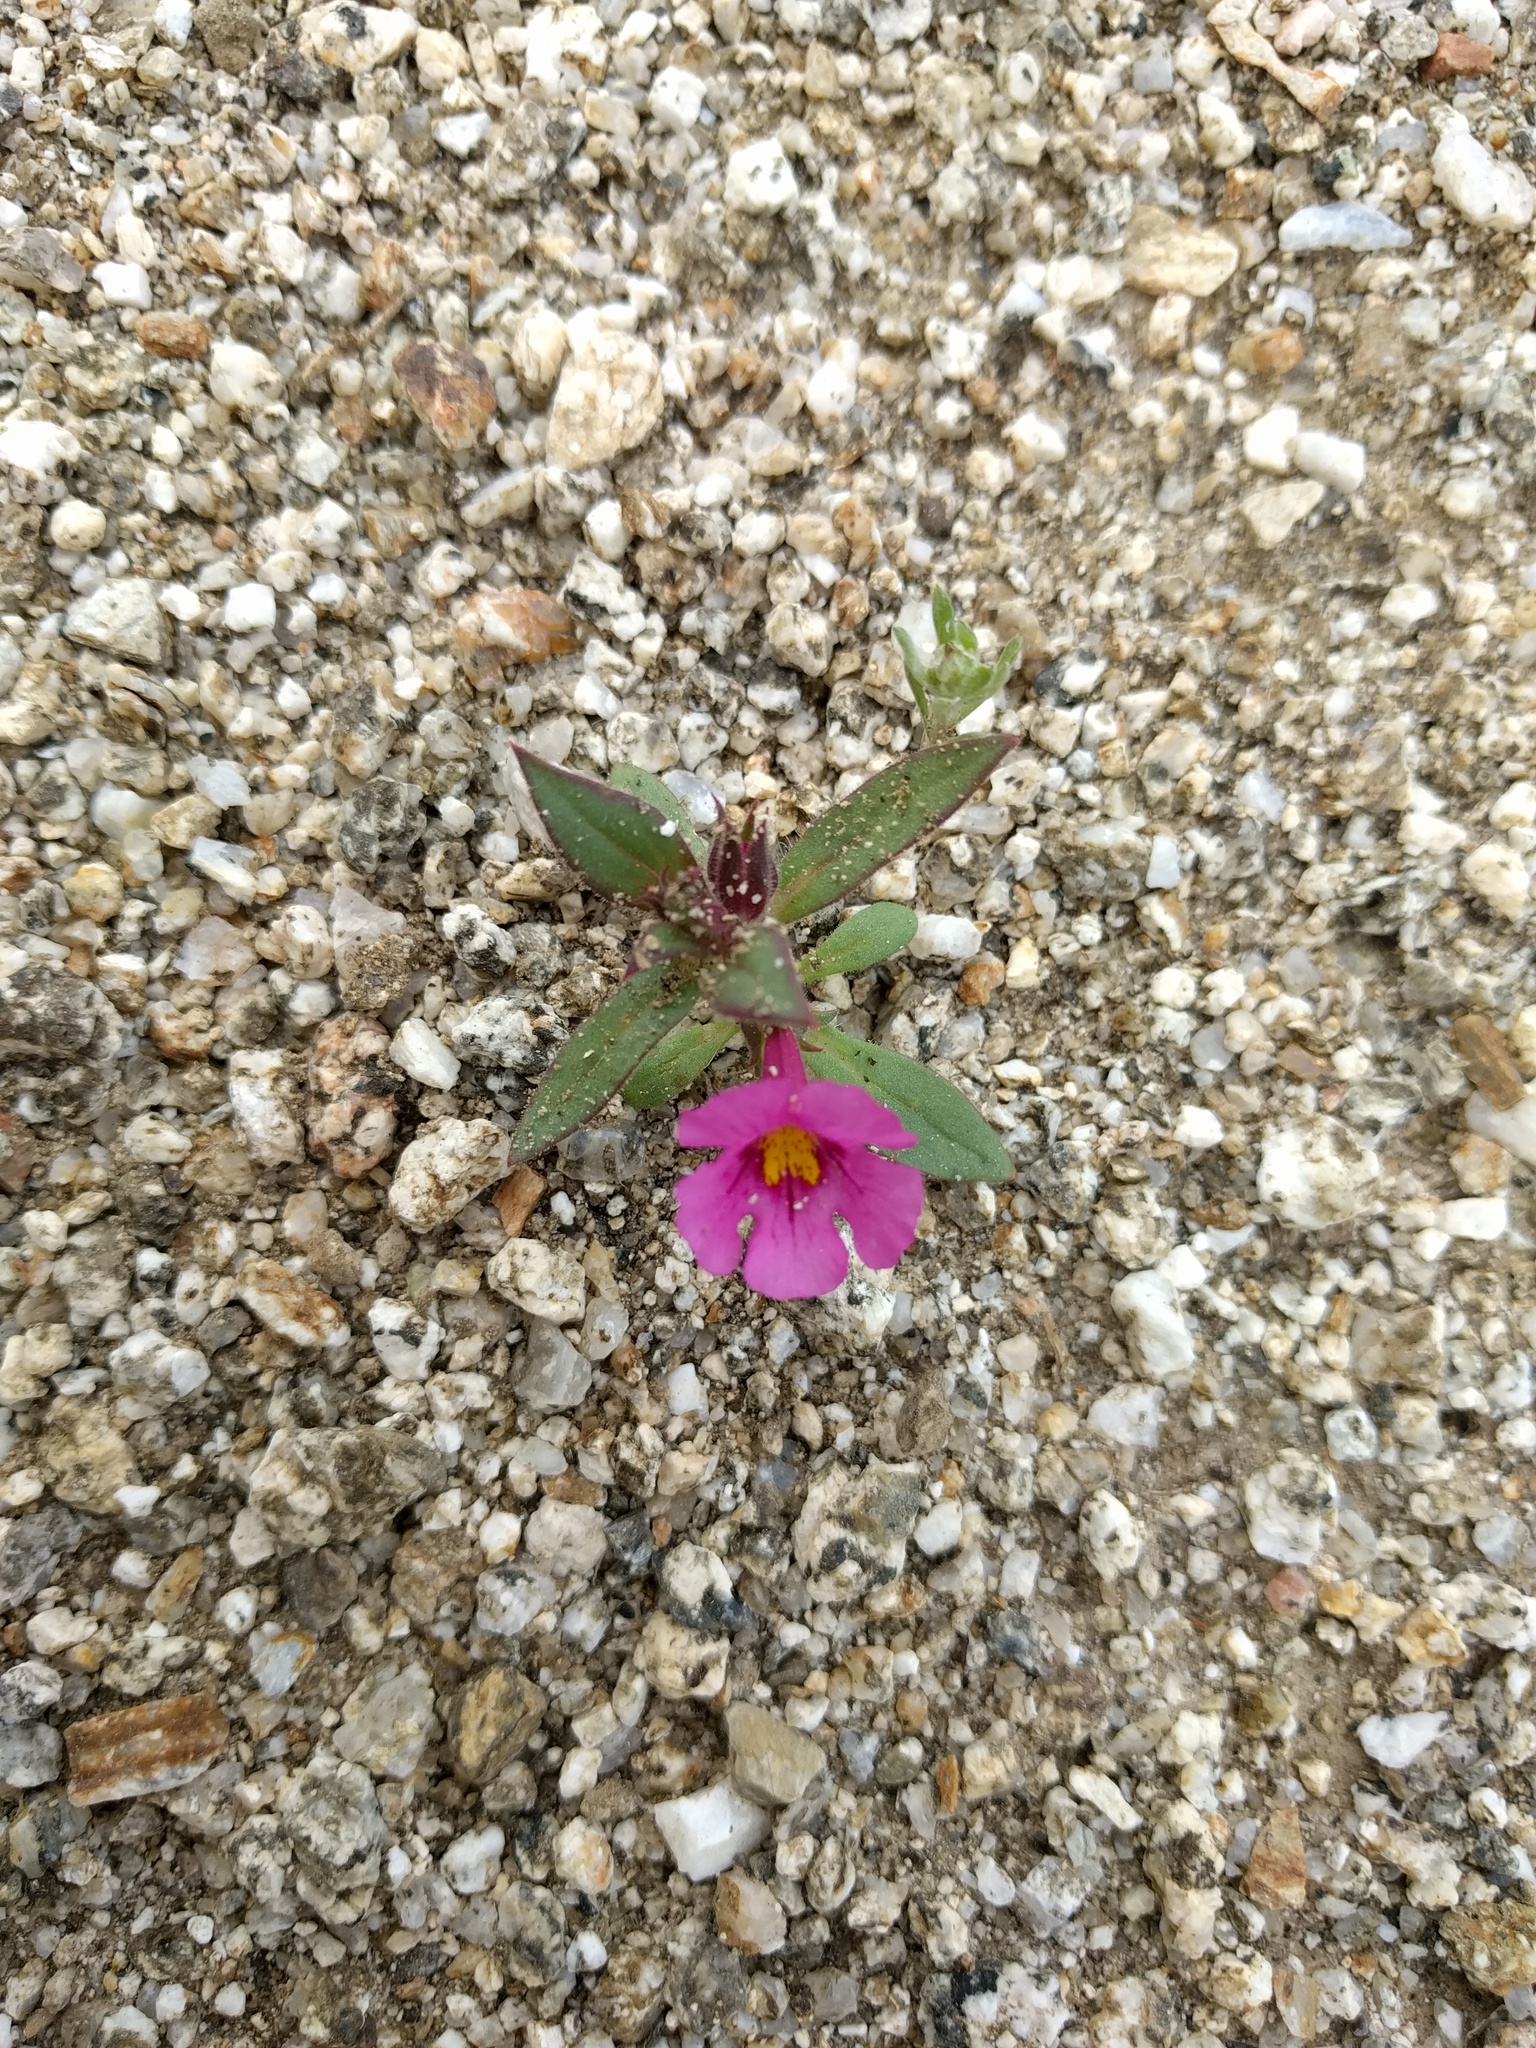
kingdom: Plantae
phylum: Tracheophyta
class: Magnoliopsida
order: Lamiales
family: Phrymaceae
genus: Diplacus
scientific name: Diplacus bigelovii
